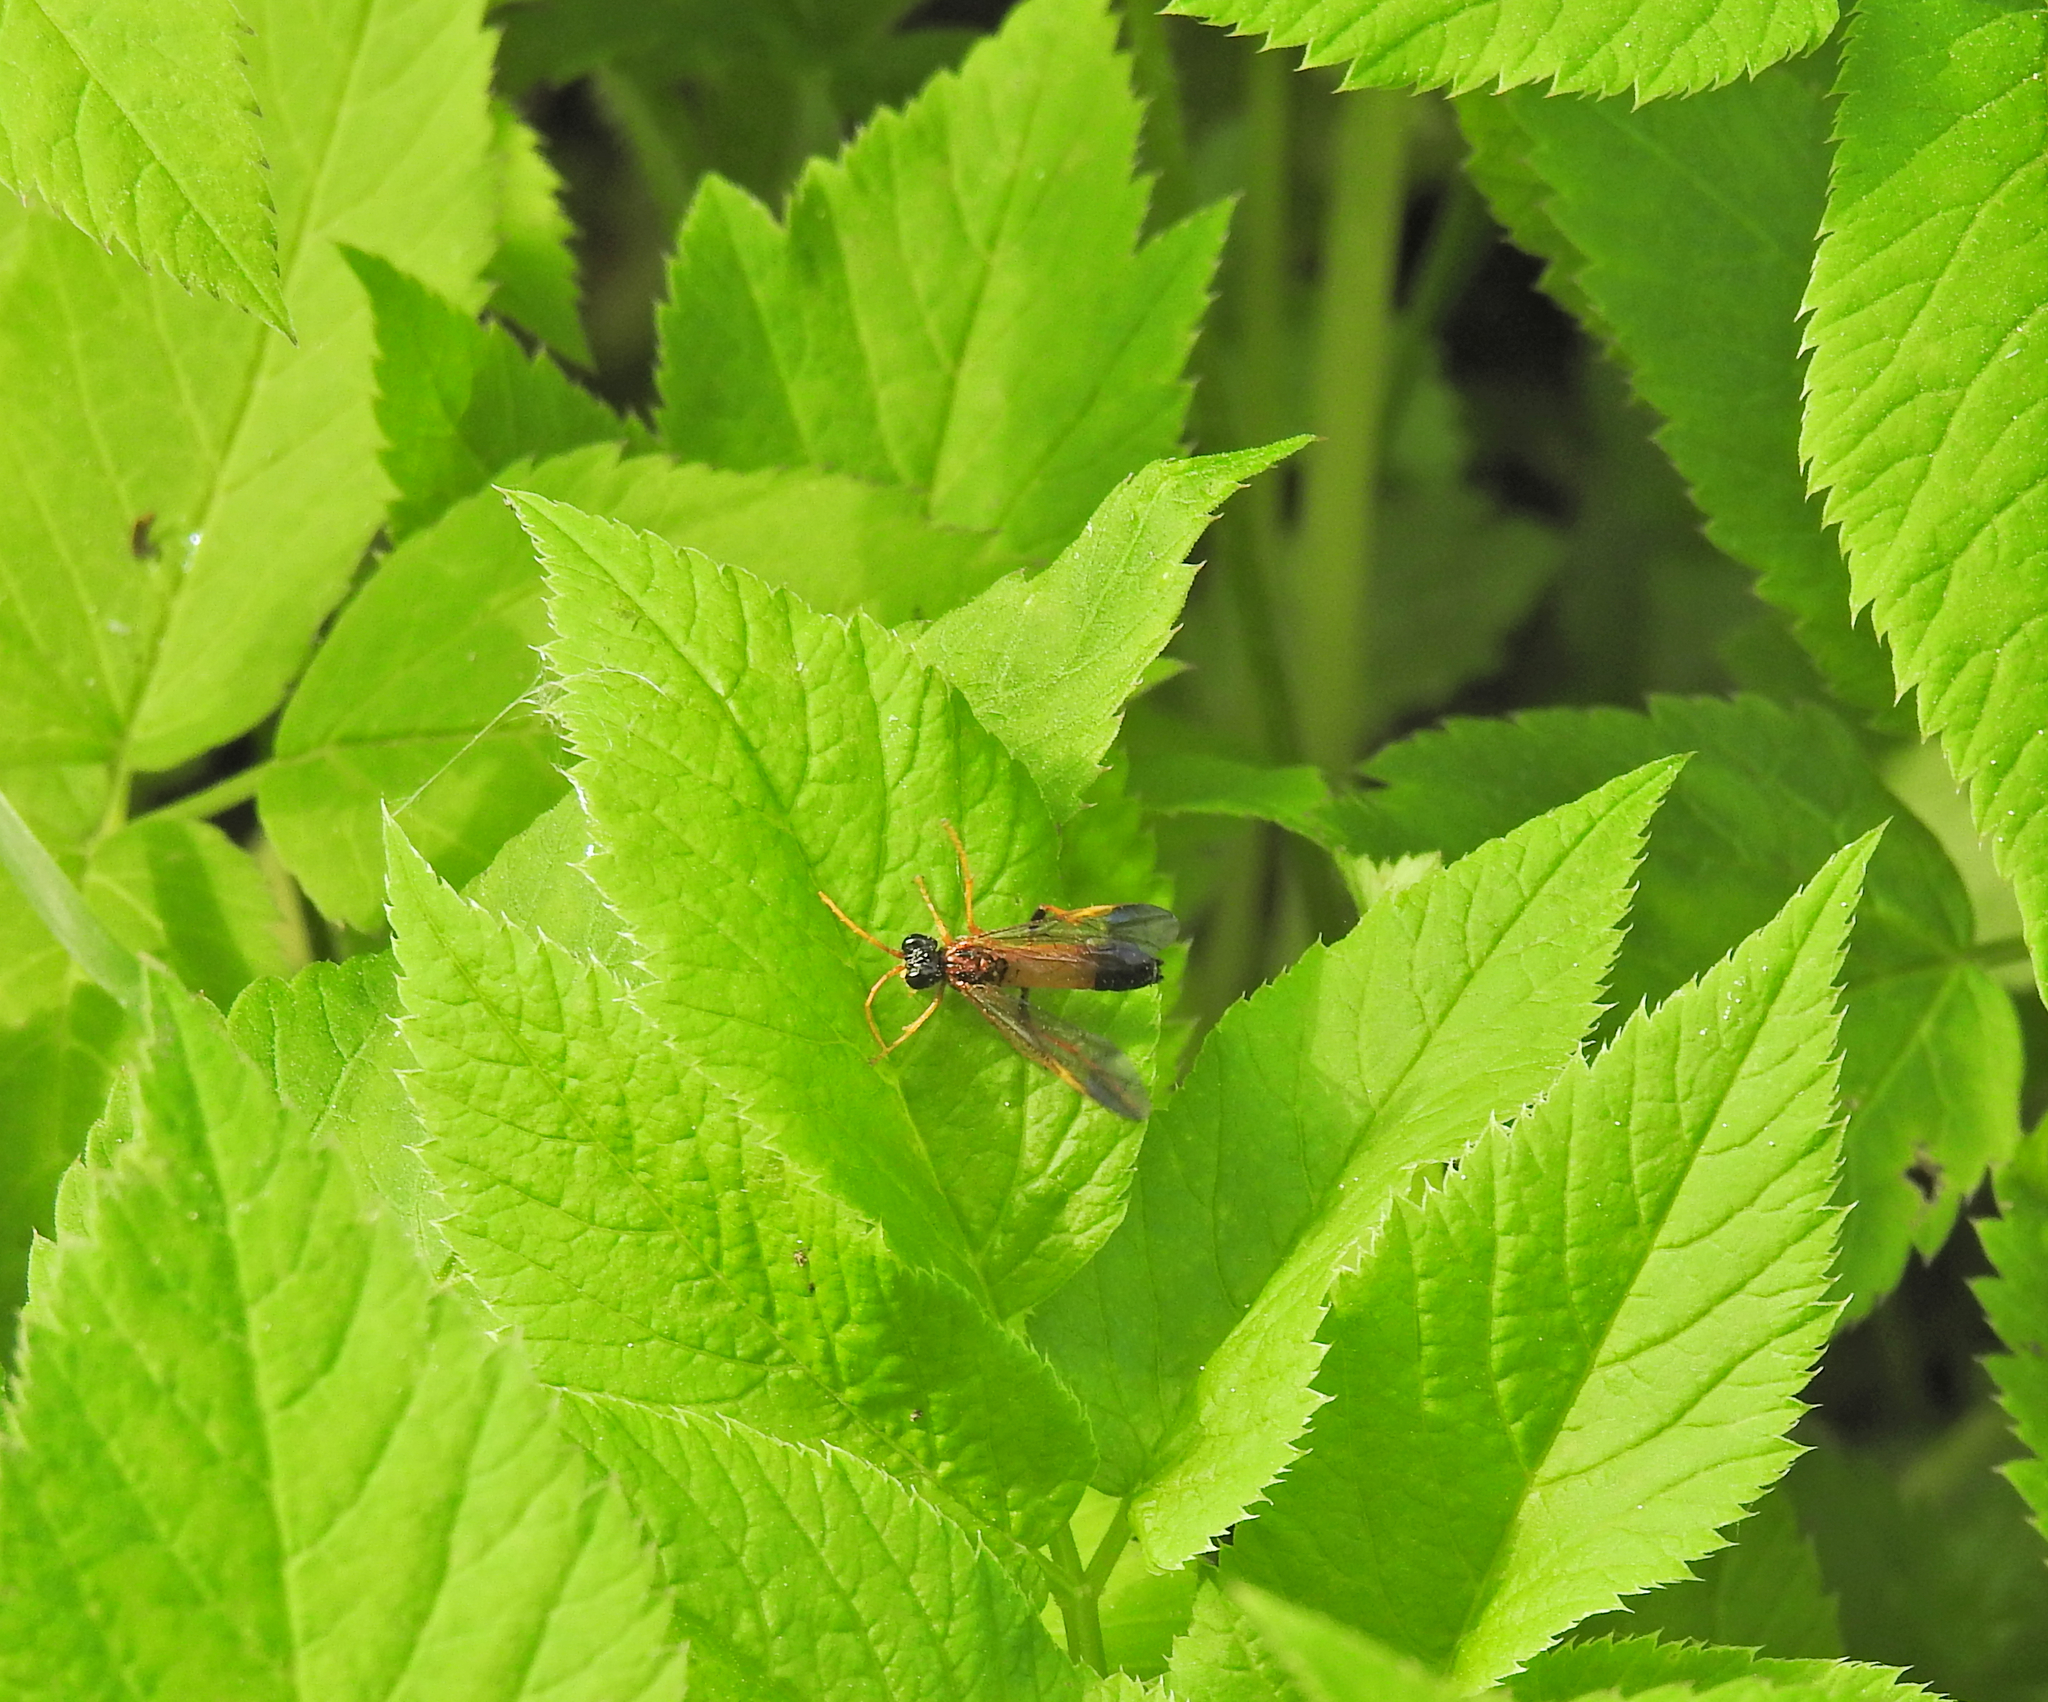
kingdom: Animalia
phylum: Arthropoda
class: Insecta
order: Hymenoptera
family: Tenthredinidae
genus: Tenthredo
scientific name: Tenthredo campestris
